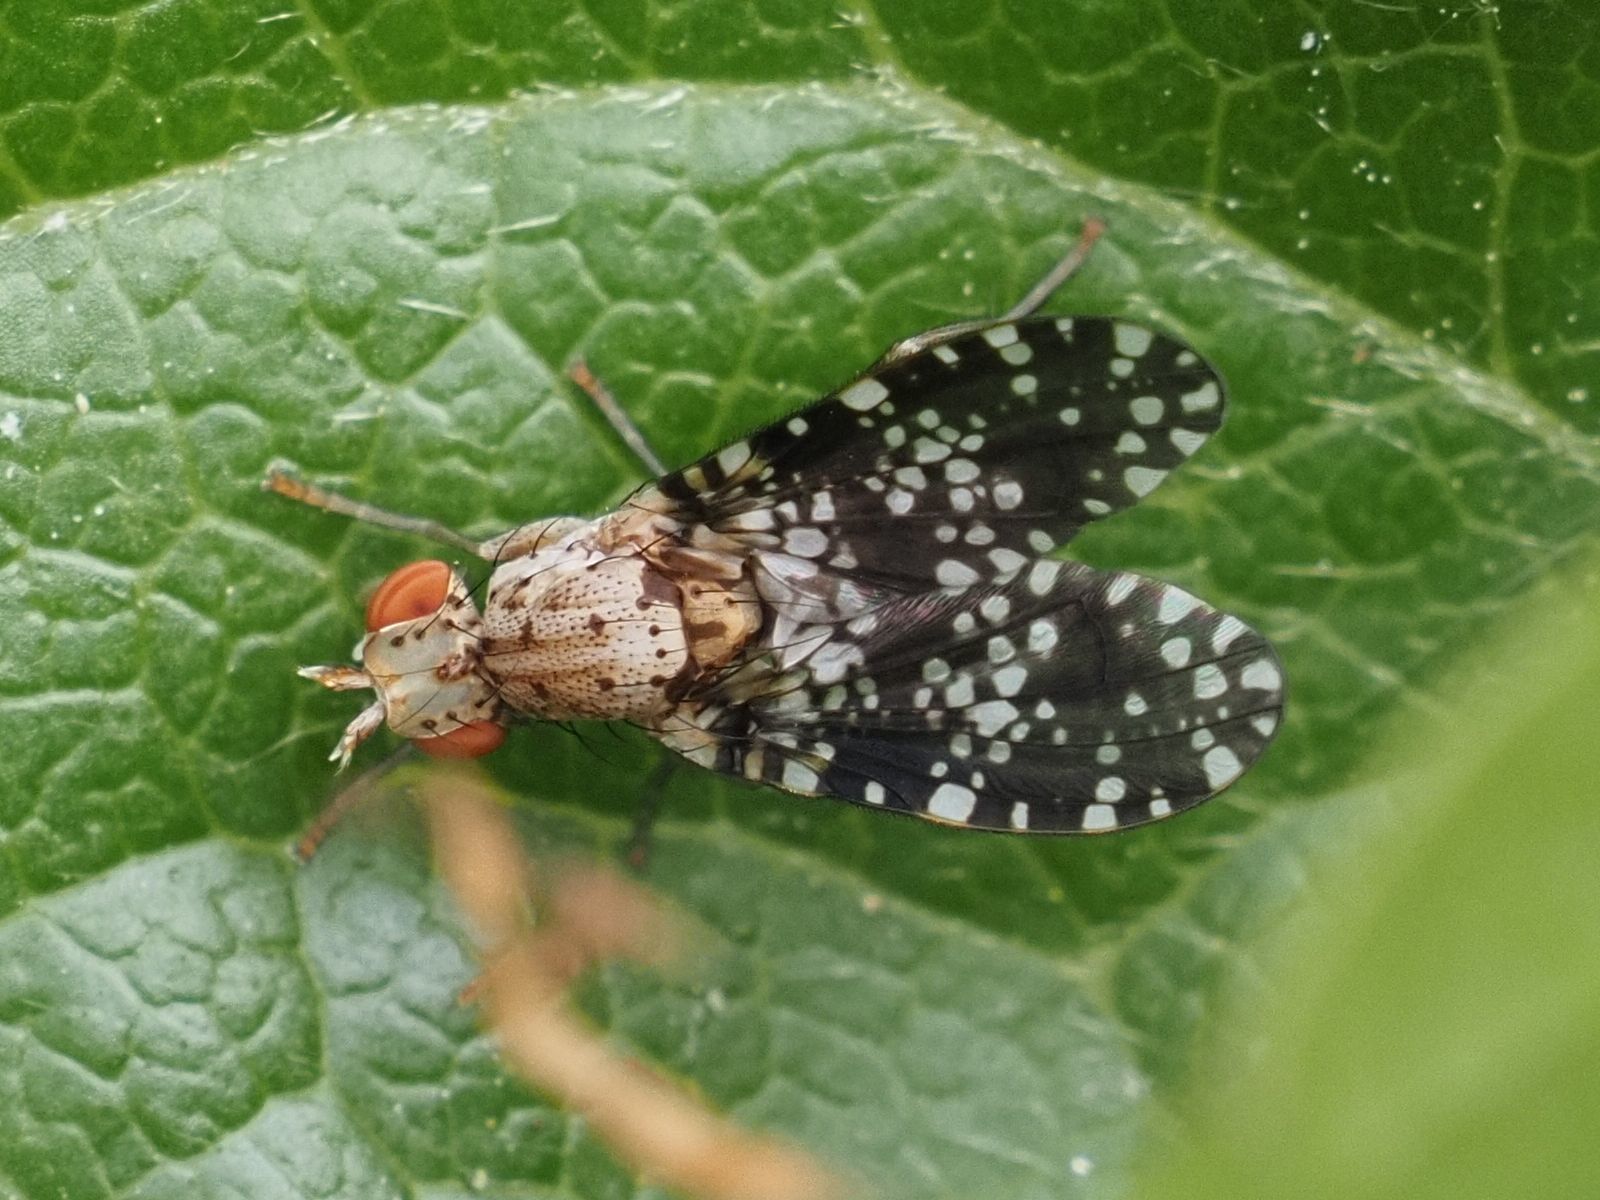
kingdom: Animalia
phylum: Arthropoda
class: Insecta
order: Diptera
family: Sciomyzidae
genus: Trypetoptera
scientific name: Trypetoptera punctulata
